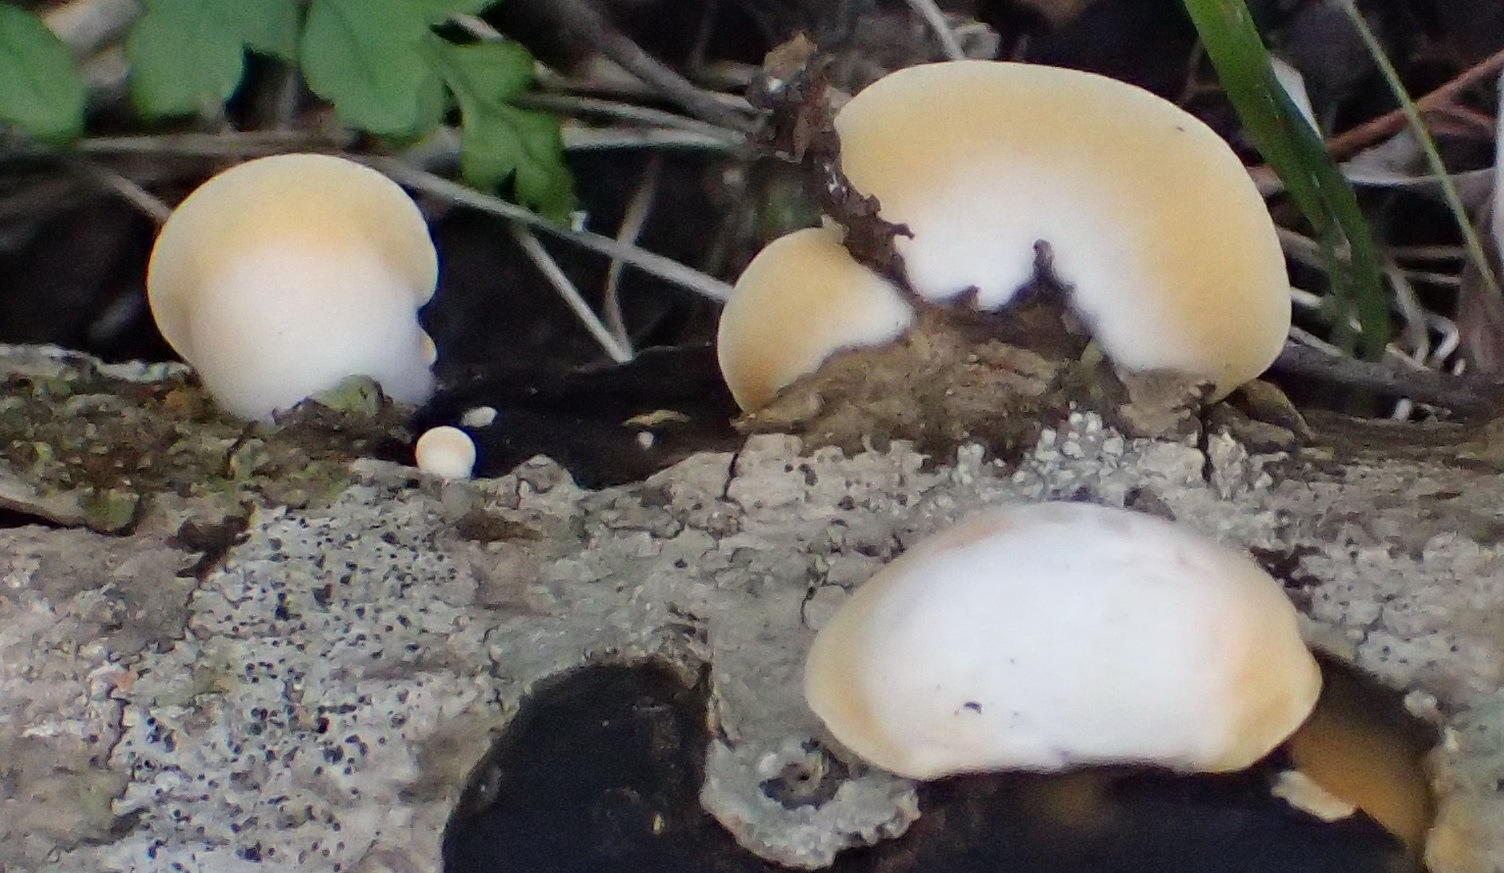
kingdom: Fungi
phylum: Basidiomycota
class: Agaricomycetes
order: Agaricales
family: Crepidotaceae
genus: Crepidotus
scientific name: Crepidotus variabilis
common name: Variable oysterling
